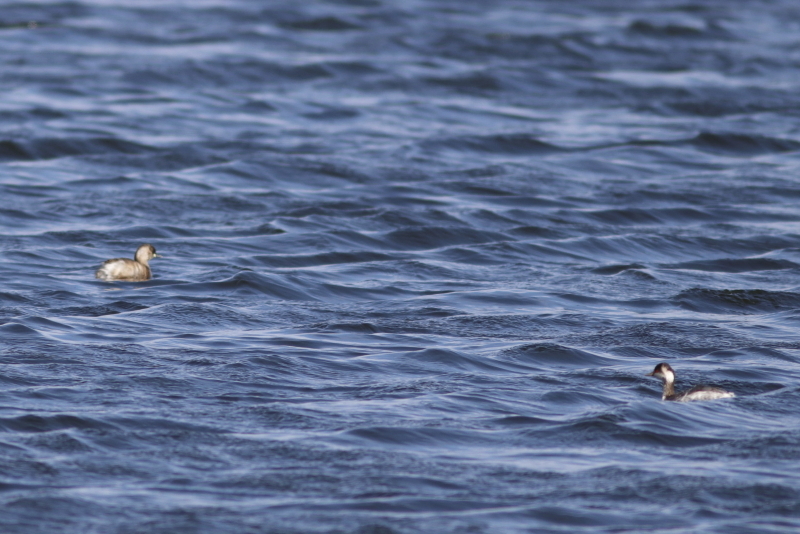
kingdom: Animalia
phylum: Chordata
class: Aves
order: Podicipediformes
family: Podicipedidae
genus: Podiceps
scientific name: Podiceps nigricollis
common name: Black-necked grebe
